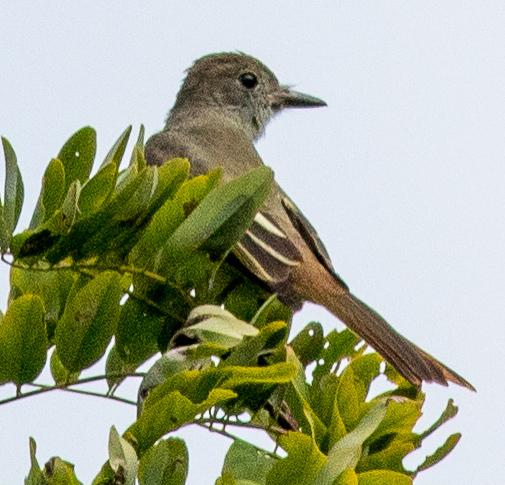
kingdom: Animalia
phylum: Chordata
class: Aves
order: Passeriformes
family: Tyrannidae
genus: Myiarchus
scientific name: Myiarchus crinitus
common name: Great crested flycatcher
